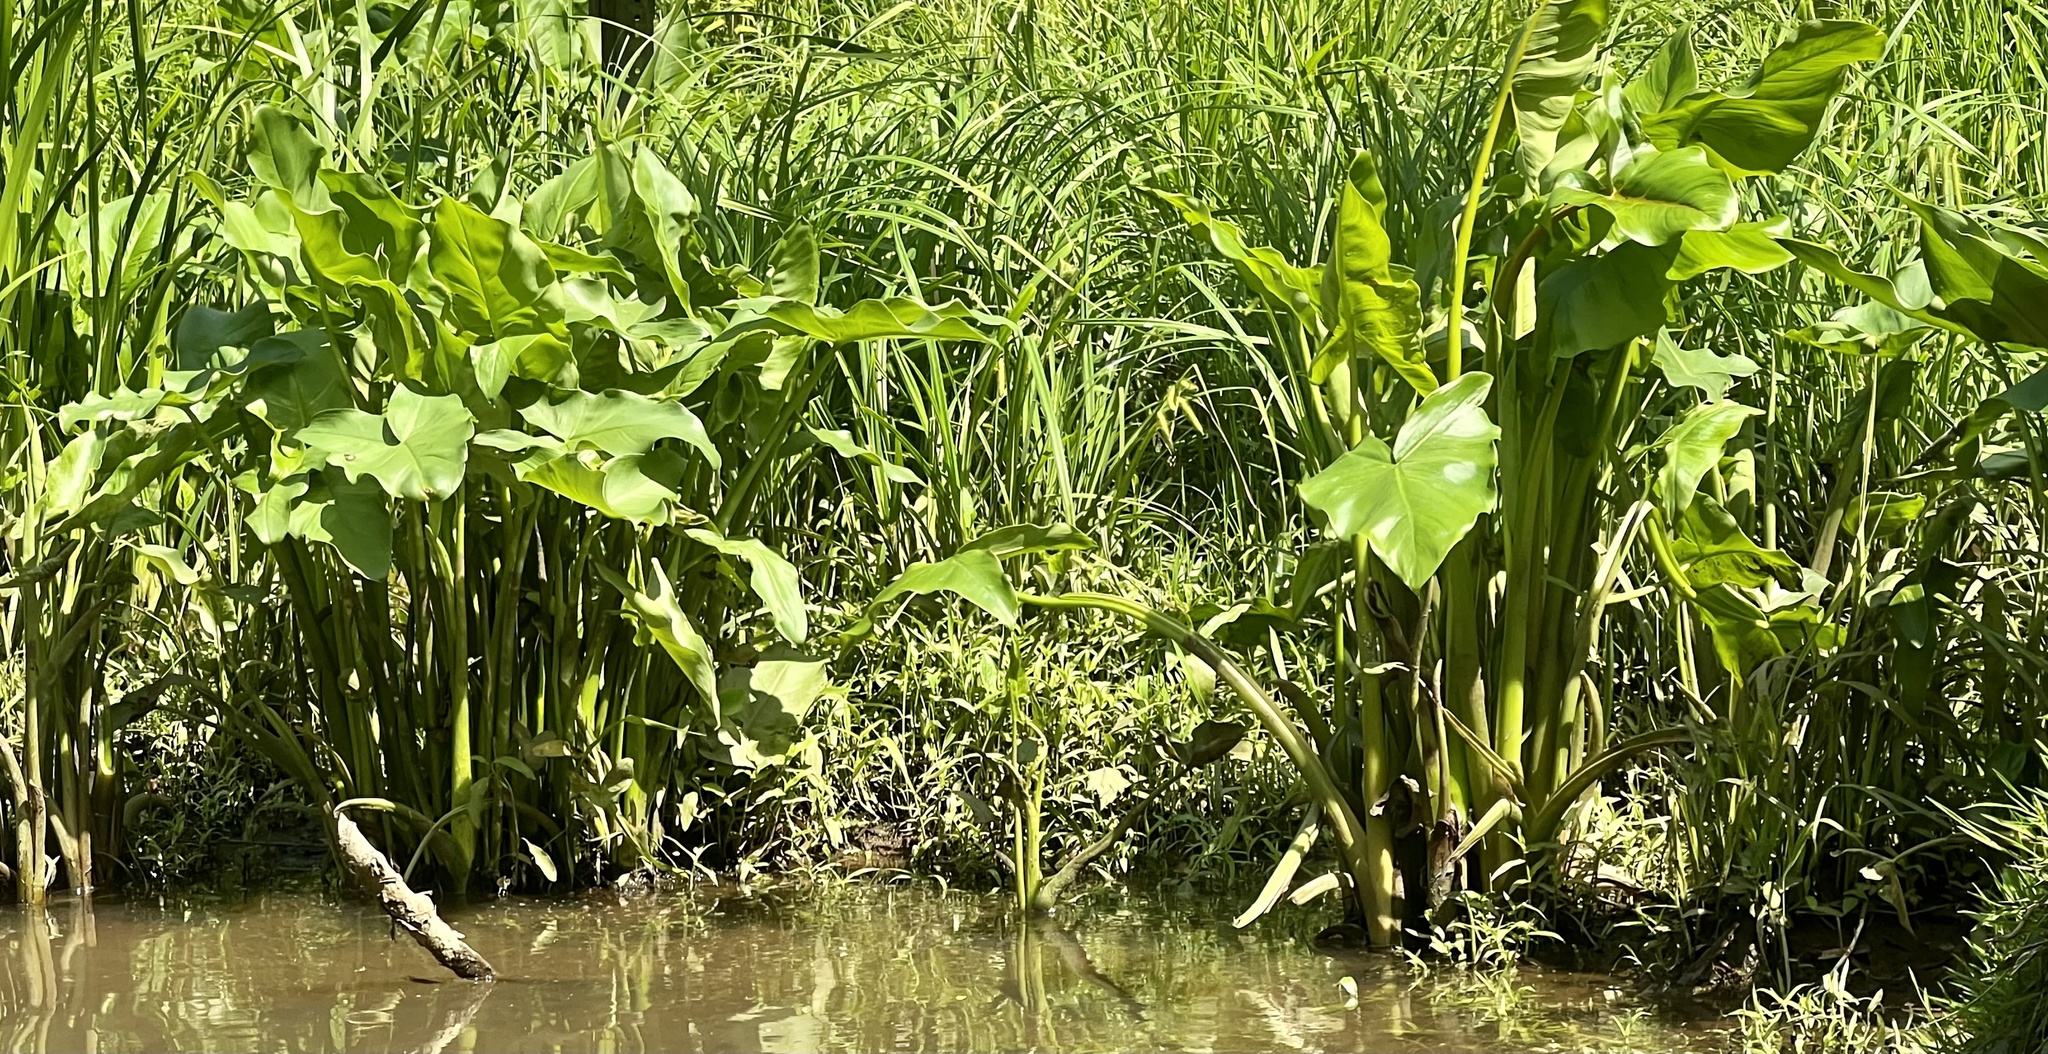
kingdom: Plantae
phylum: Tracheophyta
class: Liliopsida
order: Alismatales
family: Araceae
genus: Peltandra
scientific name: Peltandra virginica
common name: Arrow arum
